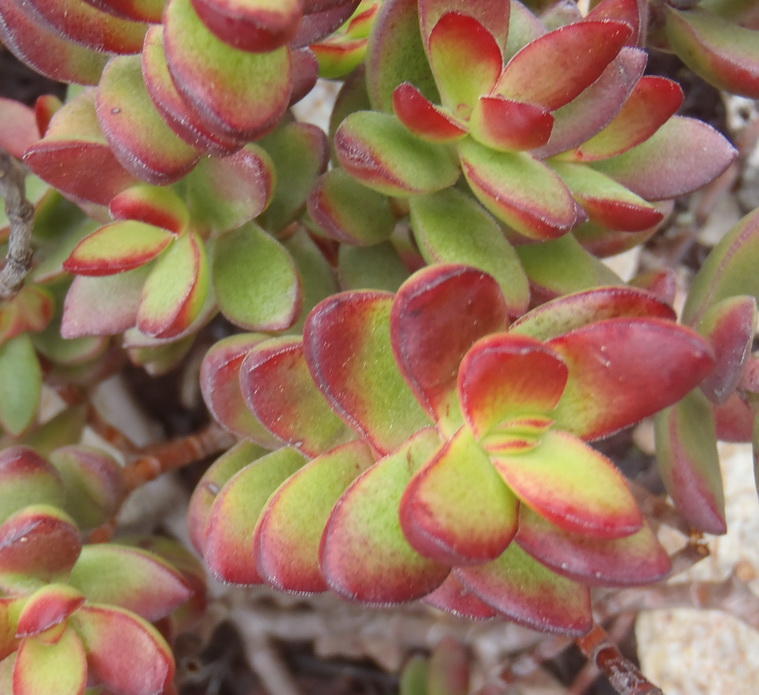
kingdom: Plantae
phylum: Tracheophyta
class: Magnoliopsida
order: Saxifragales
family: Crassulaceae
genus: Crassula
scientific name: Crassula rubricaulis
